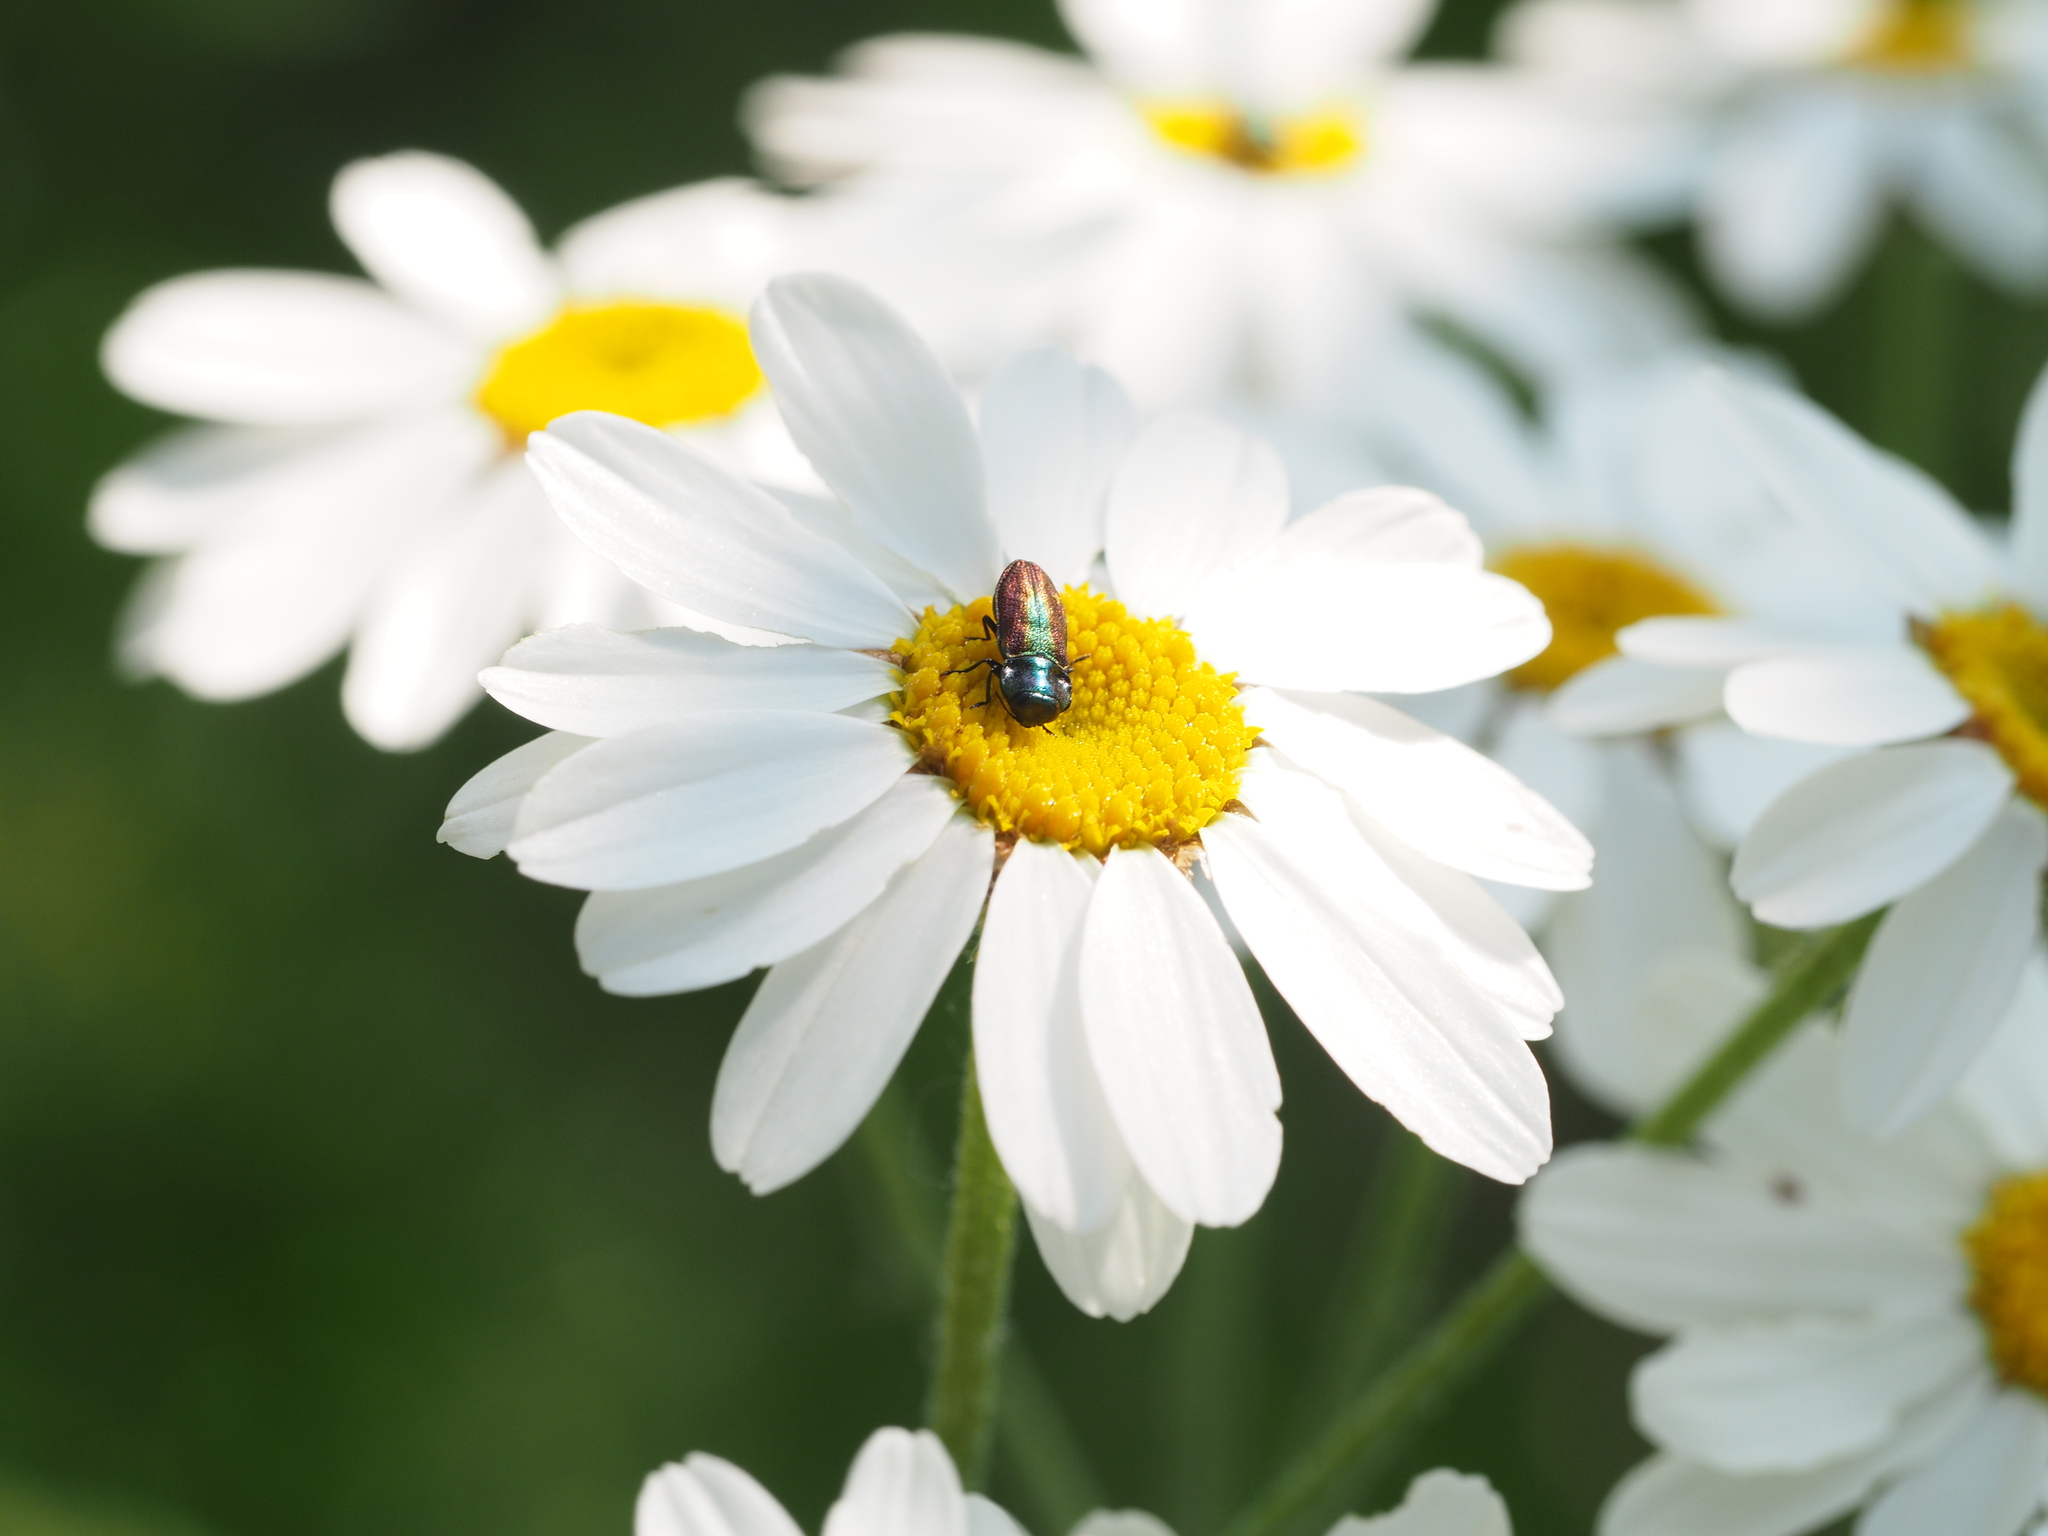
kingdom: Animalia
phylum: Arthropoda
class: Insecta
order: Coleoptera
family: Buprestidae
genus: Anthaxia
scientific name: Anthaxia fulgurans
